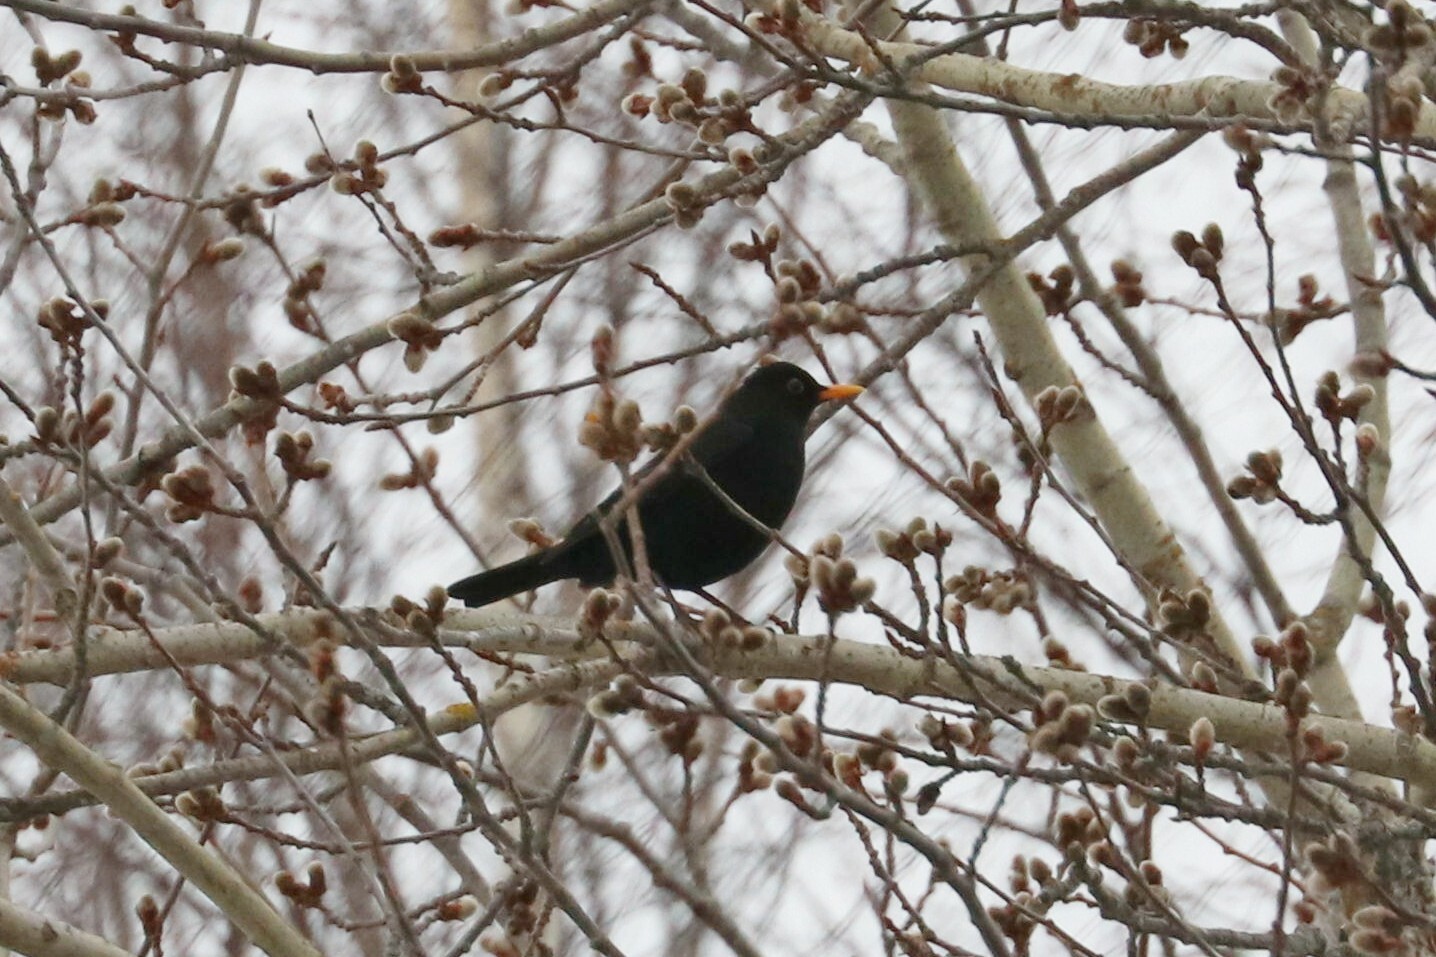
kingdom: Animalia
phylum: Chordata
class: Aves
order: Passeriformes
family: Turdidae
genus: Turdus
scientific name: Turdus merula
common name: Common blackbird
